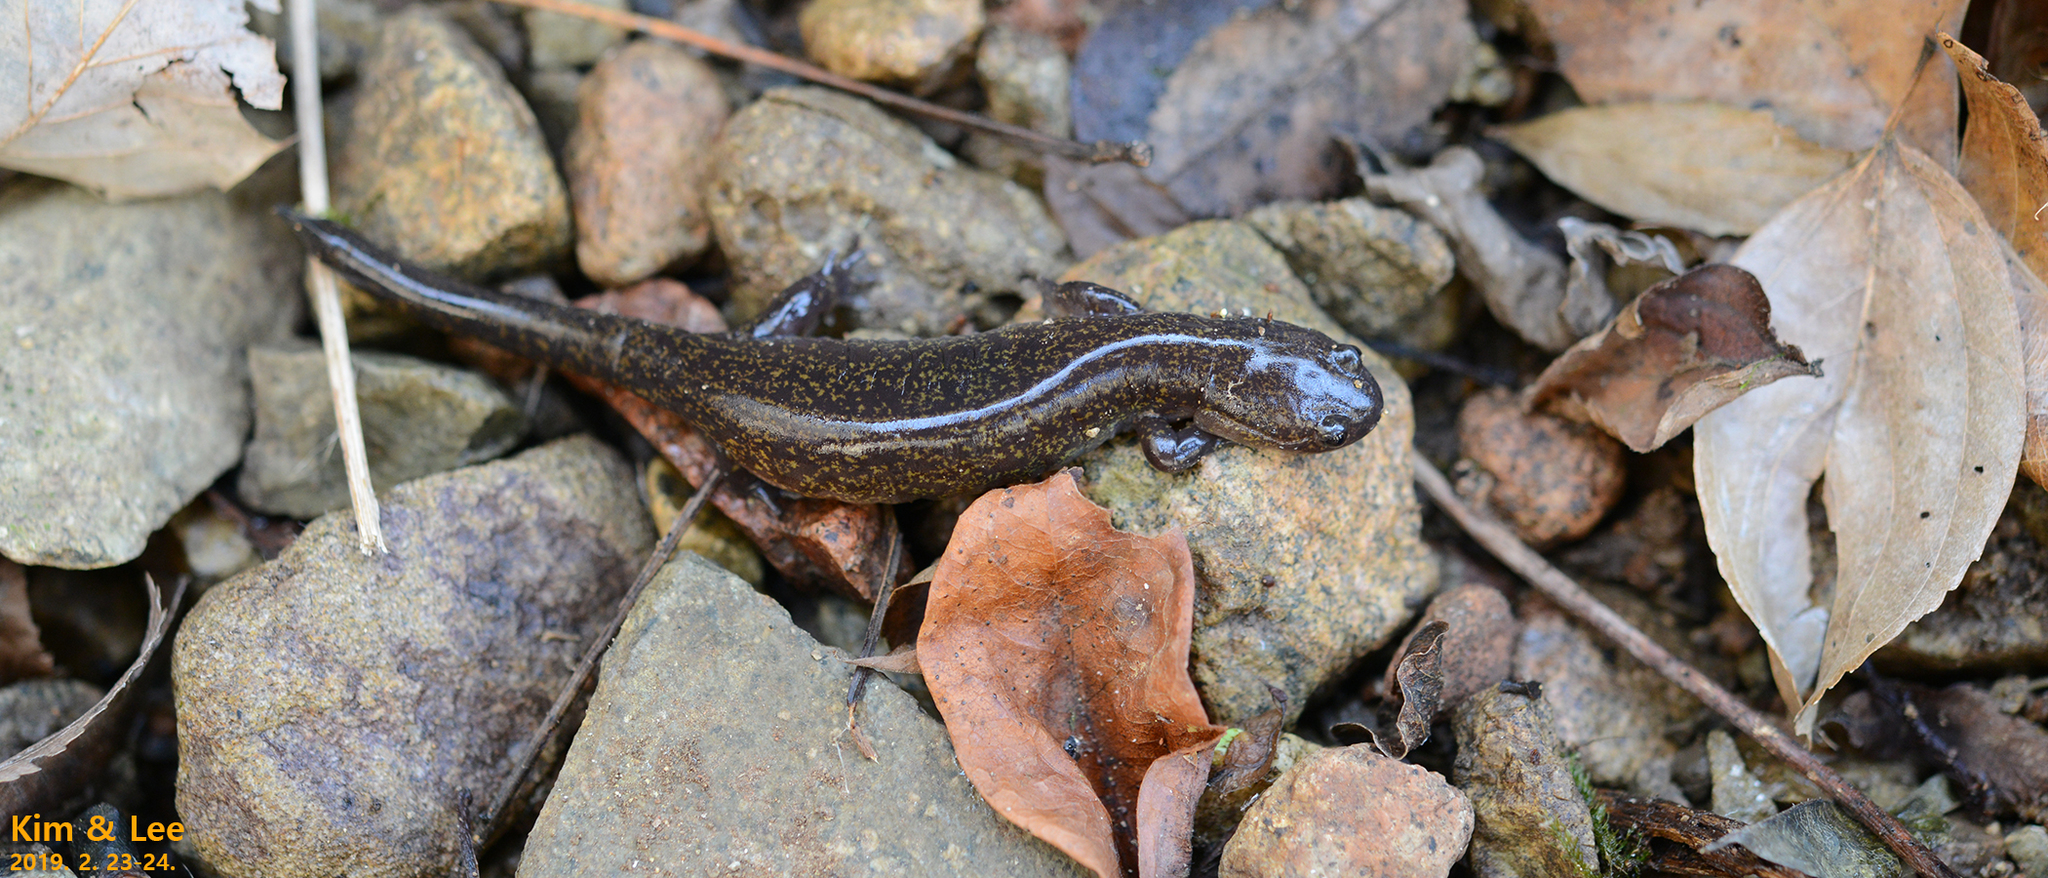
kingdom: Animalia
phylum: Chordata
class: Amphibia
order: Caudata
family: Hynobiidae
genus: Hynobius
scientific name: Hynobius perplicatus
